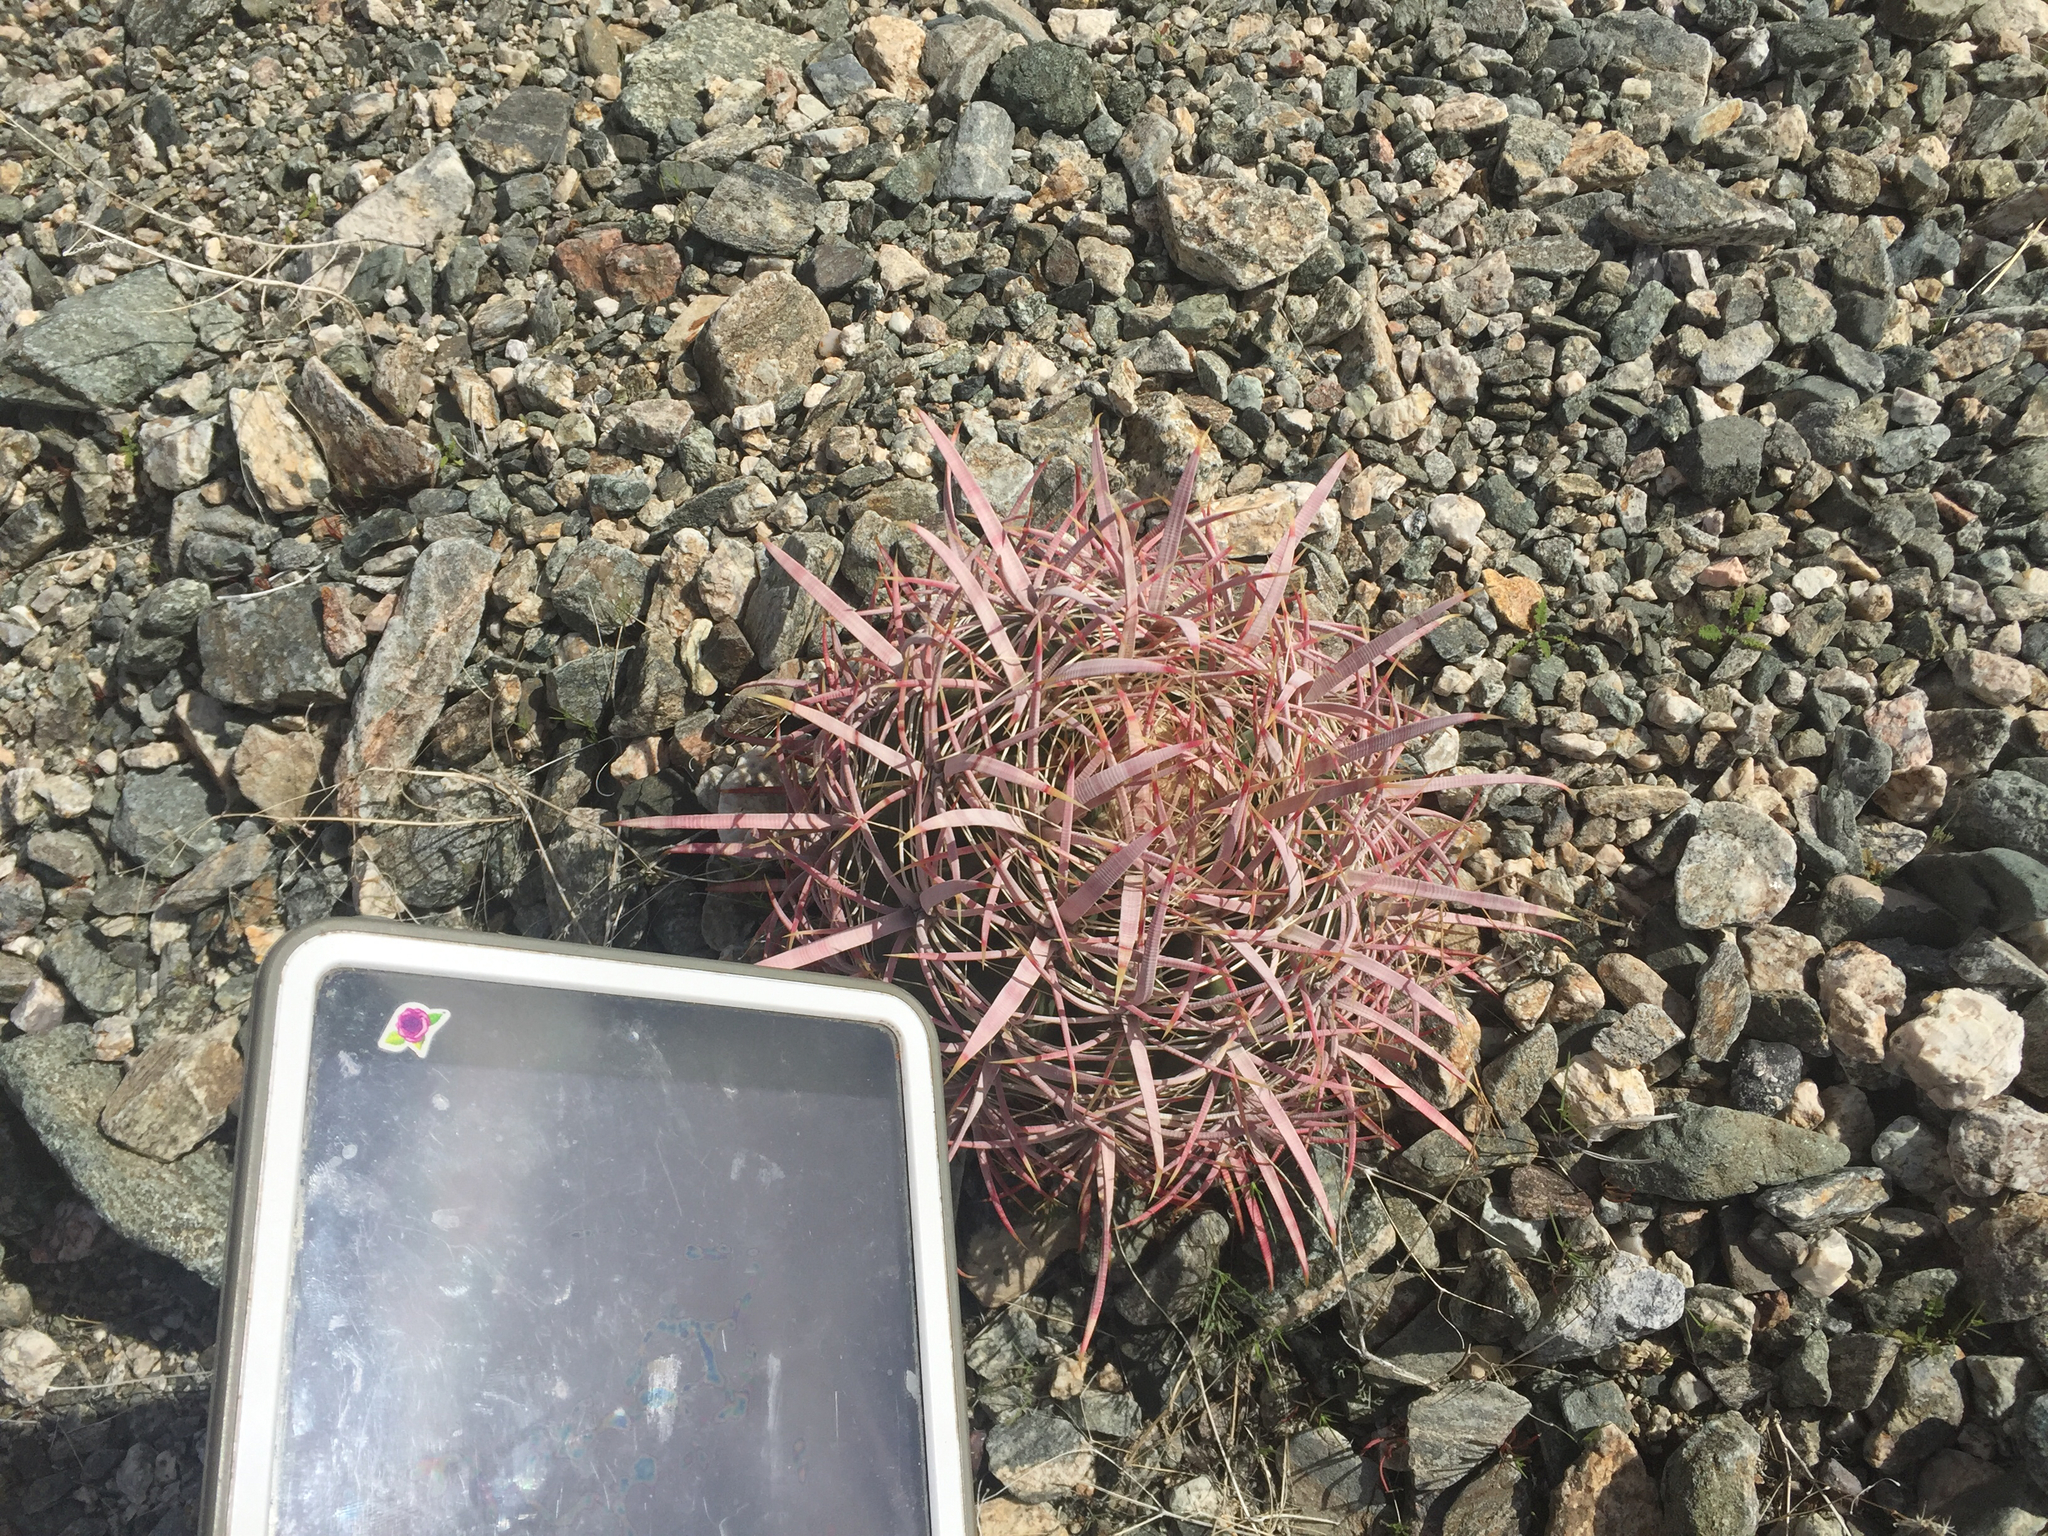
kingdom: Plantae
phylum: Tracheophyta
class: Magnoliopsida
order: Caryophyllales
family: Cactaceae
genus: Ferocactus
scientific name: Ferocactus cylindraceus
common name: California barrel cactus
